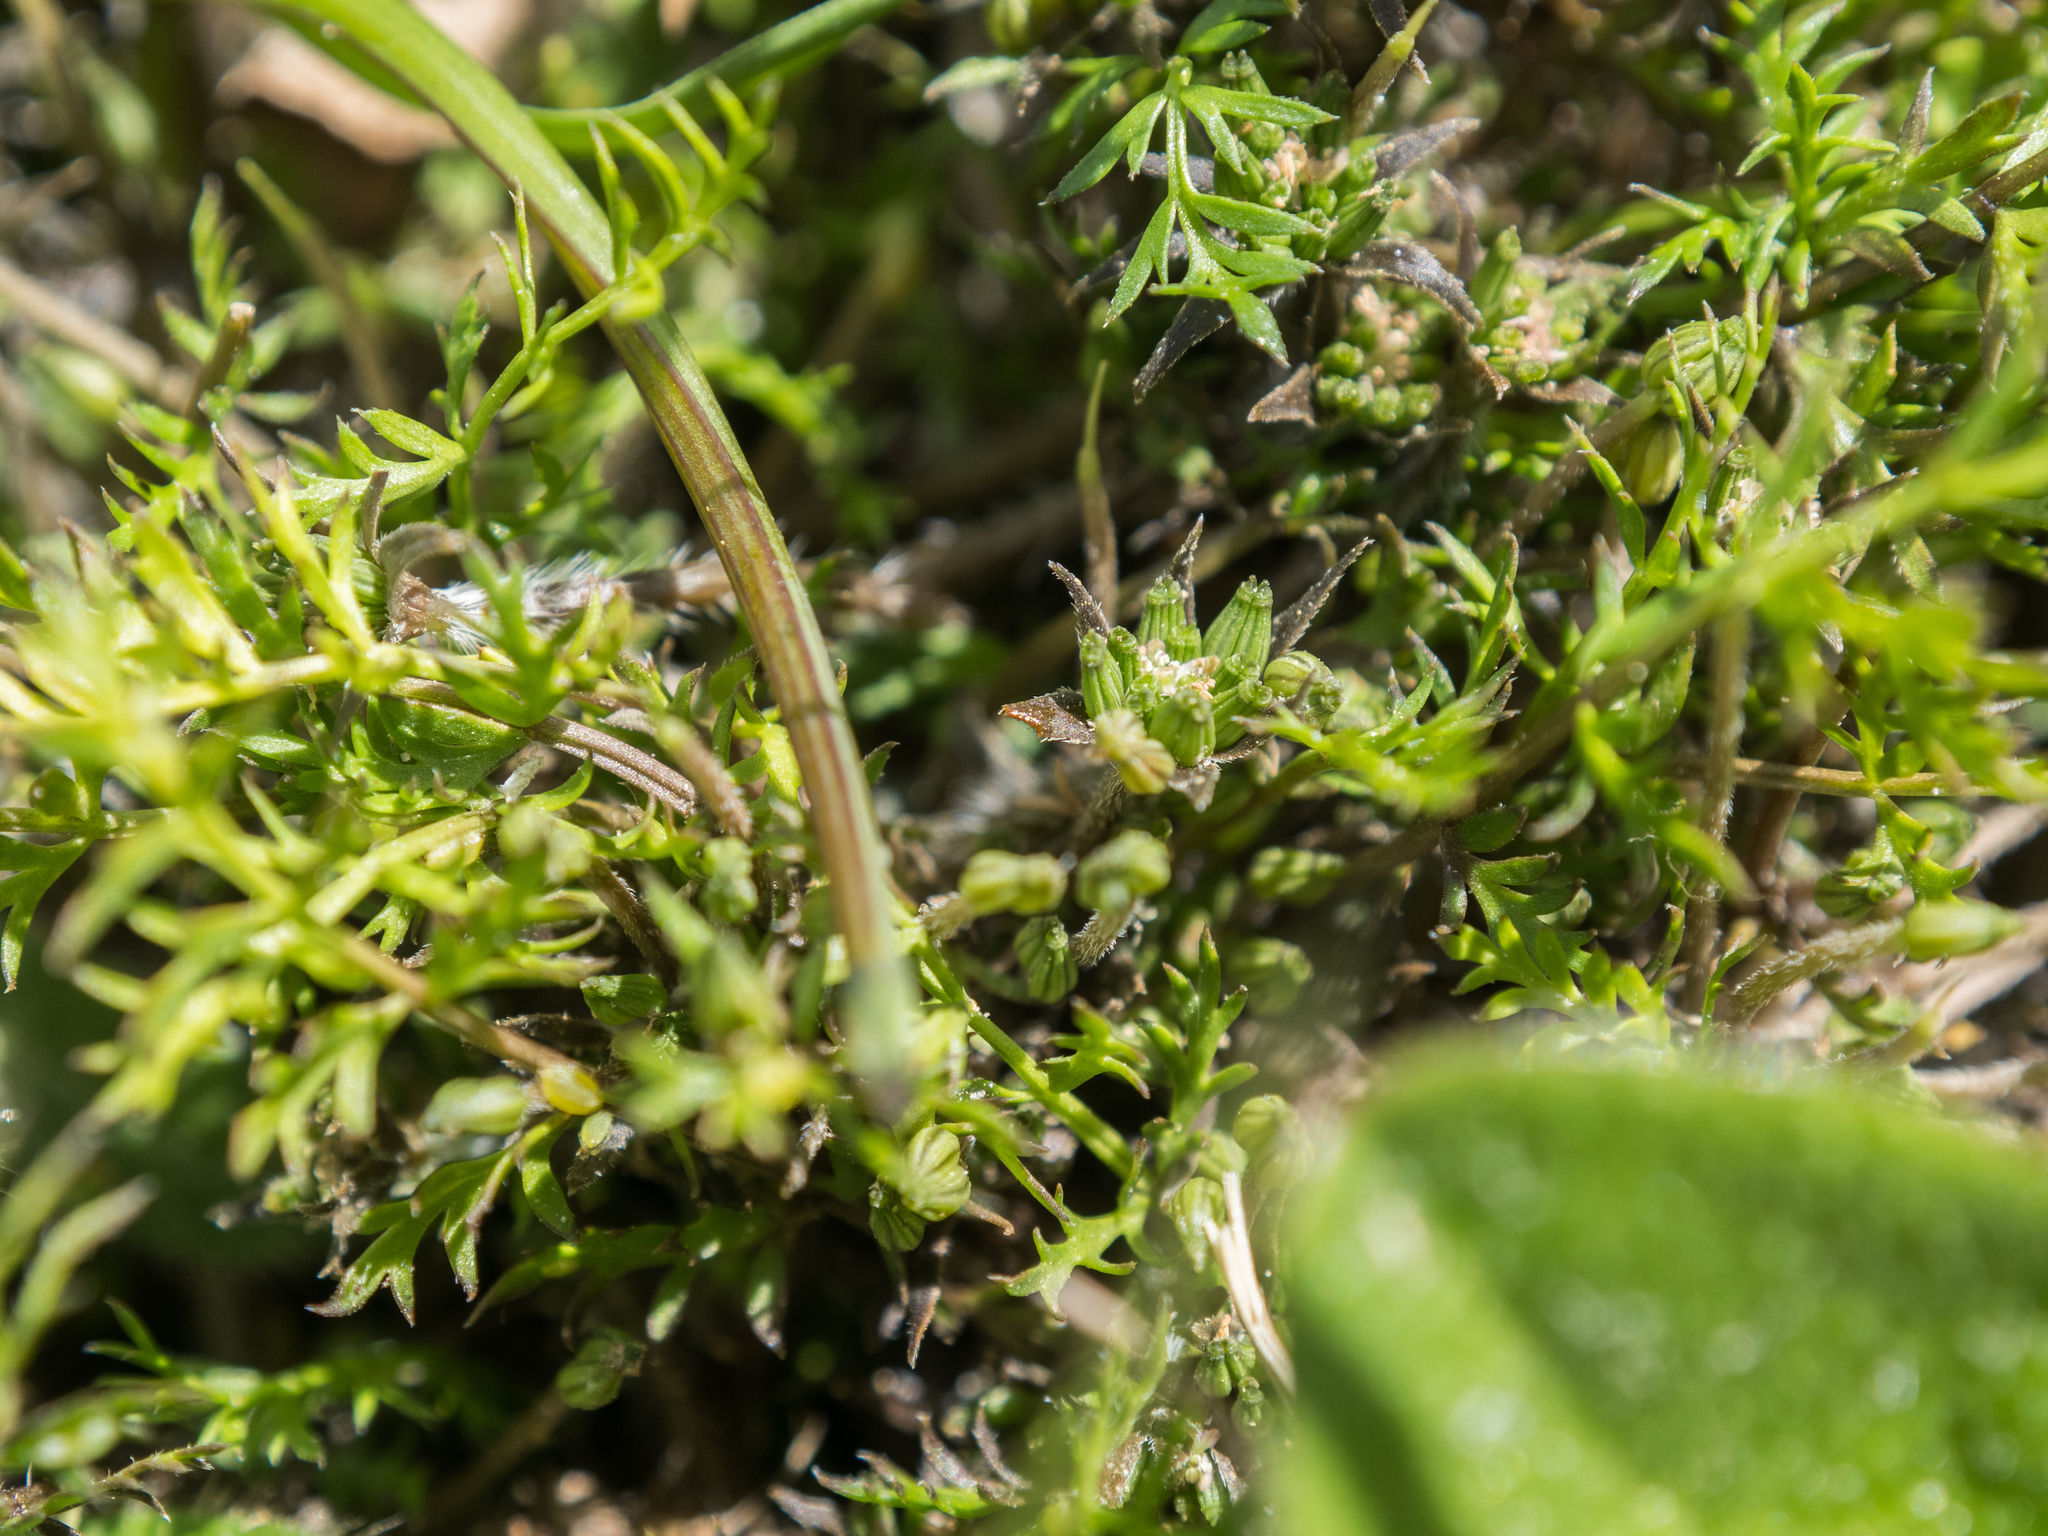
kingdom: Plantae
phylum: Tracheophyta
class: Magnoliopsida
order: Apiales
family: Apiaceae
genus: Chaerophyllum
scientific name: Chaerophyllum colensoi
